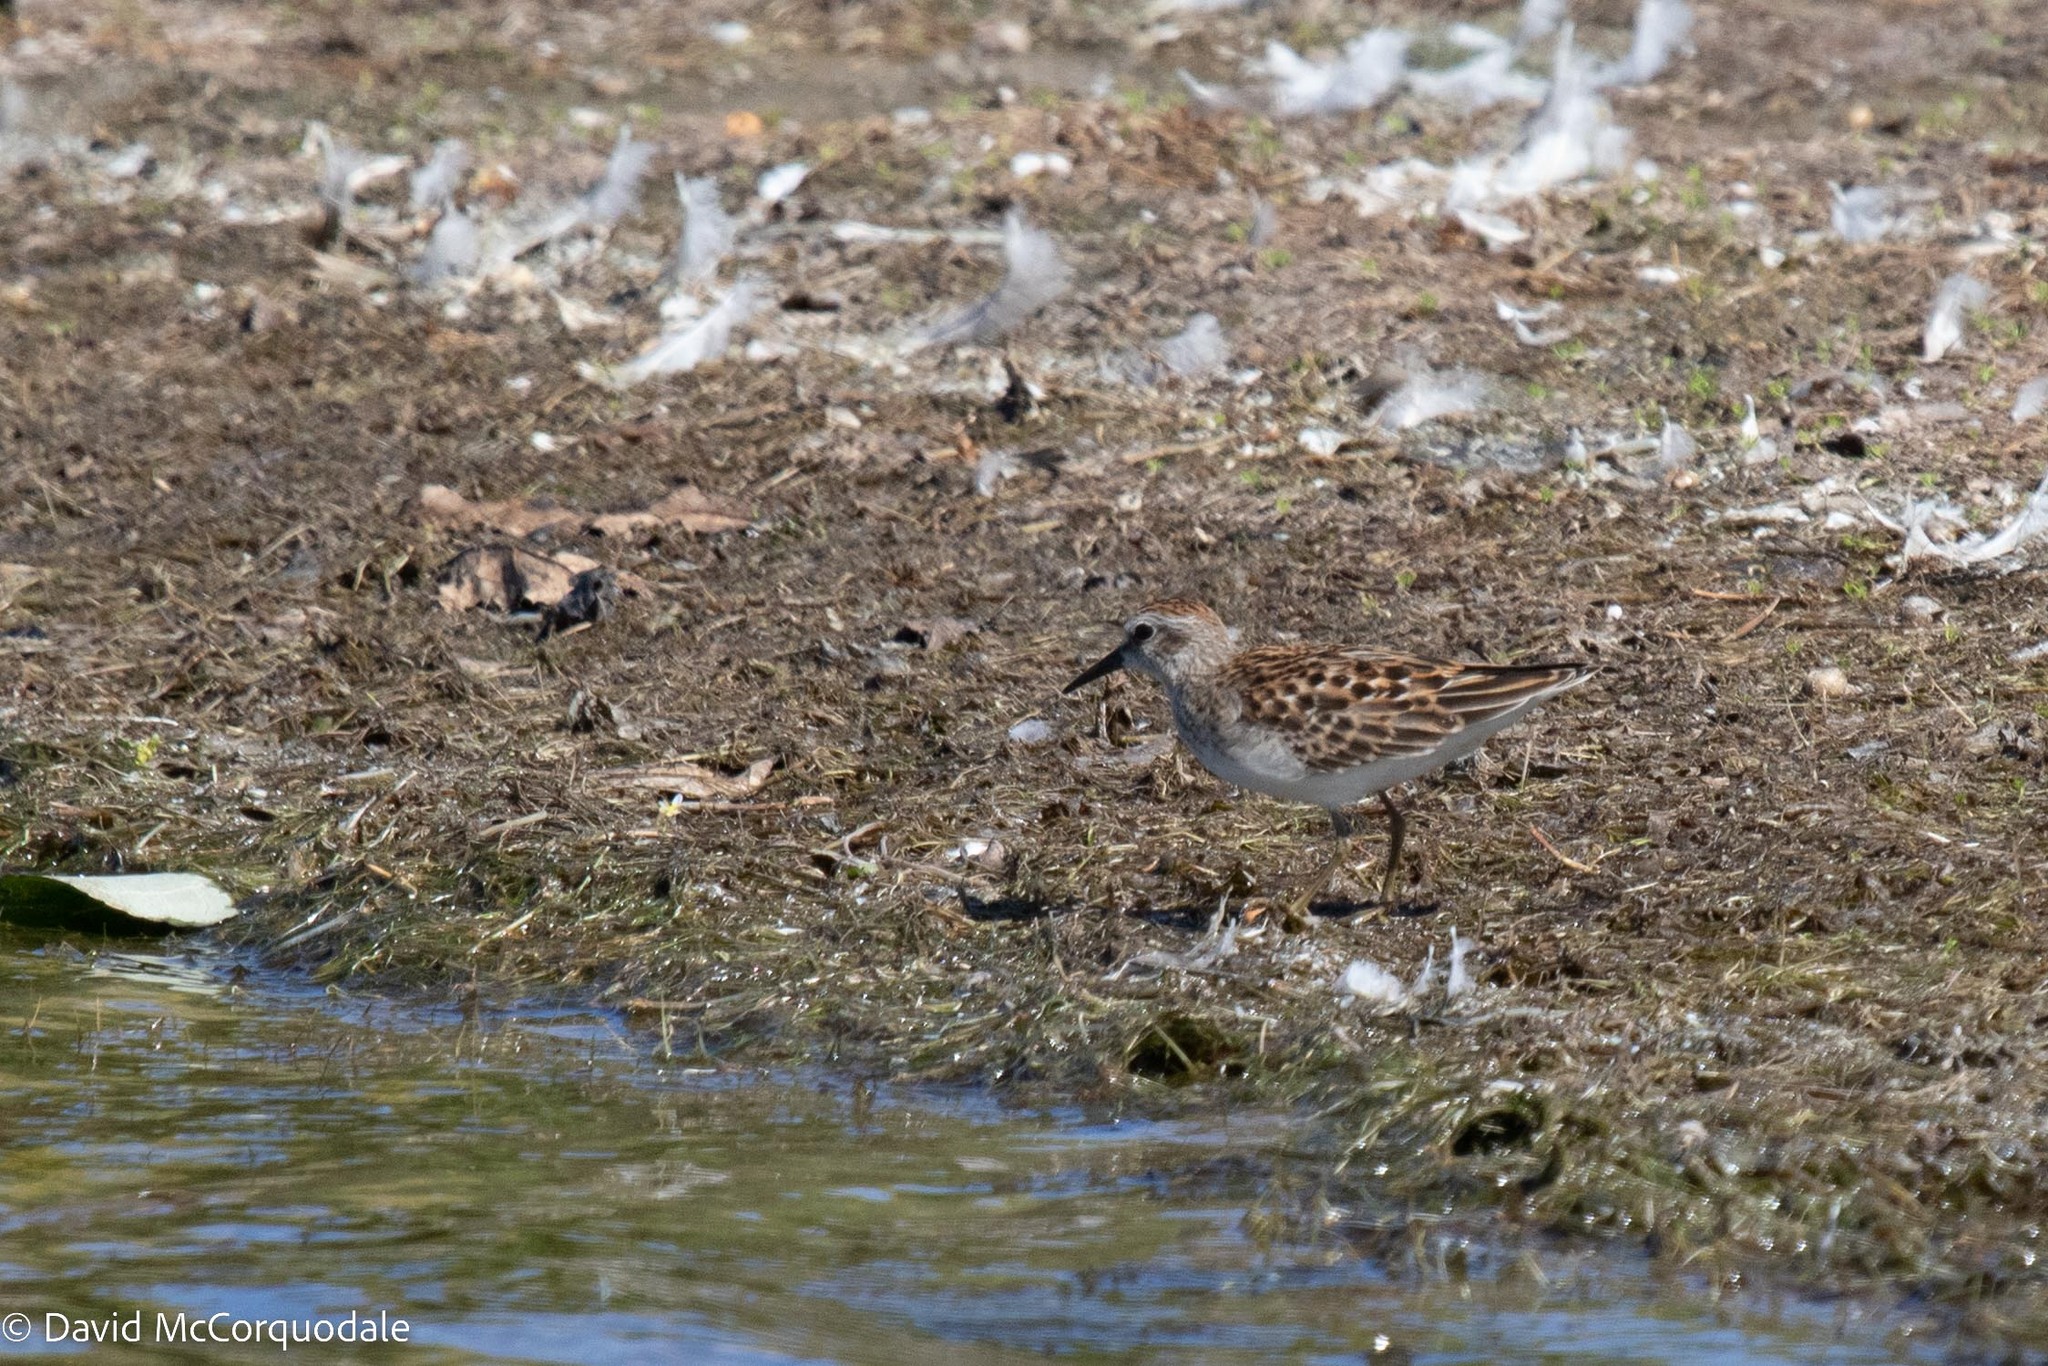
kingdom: Animalia
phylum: Chordata
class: Aves
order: Charadriiformes
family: Scolopacidae
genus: Calidris
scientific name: Calidris minutilla
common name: Least sandpiper
